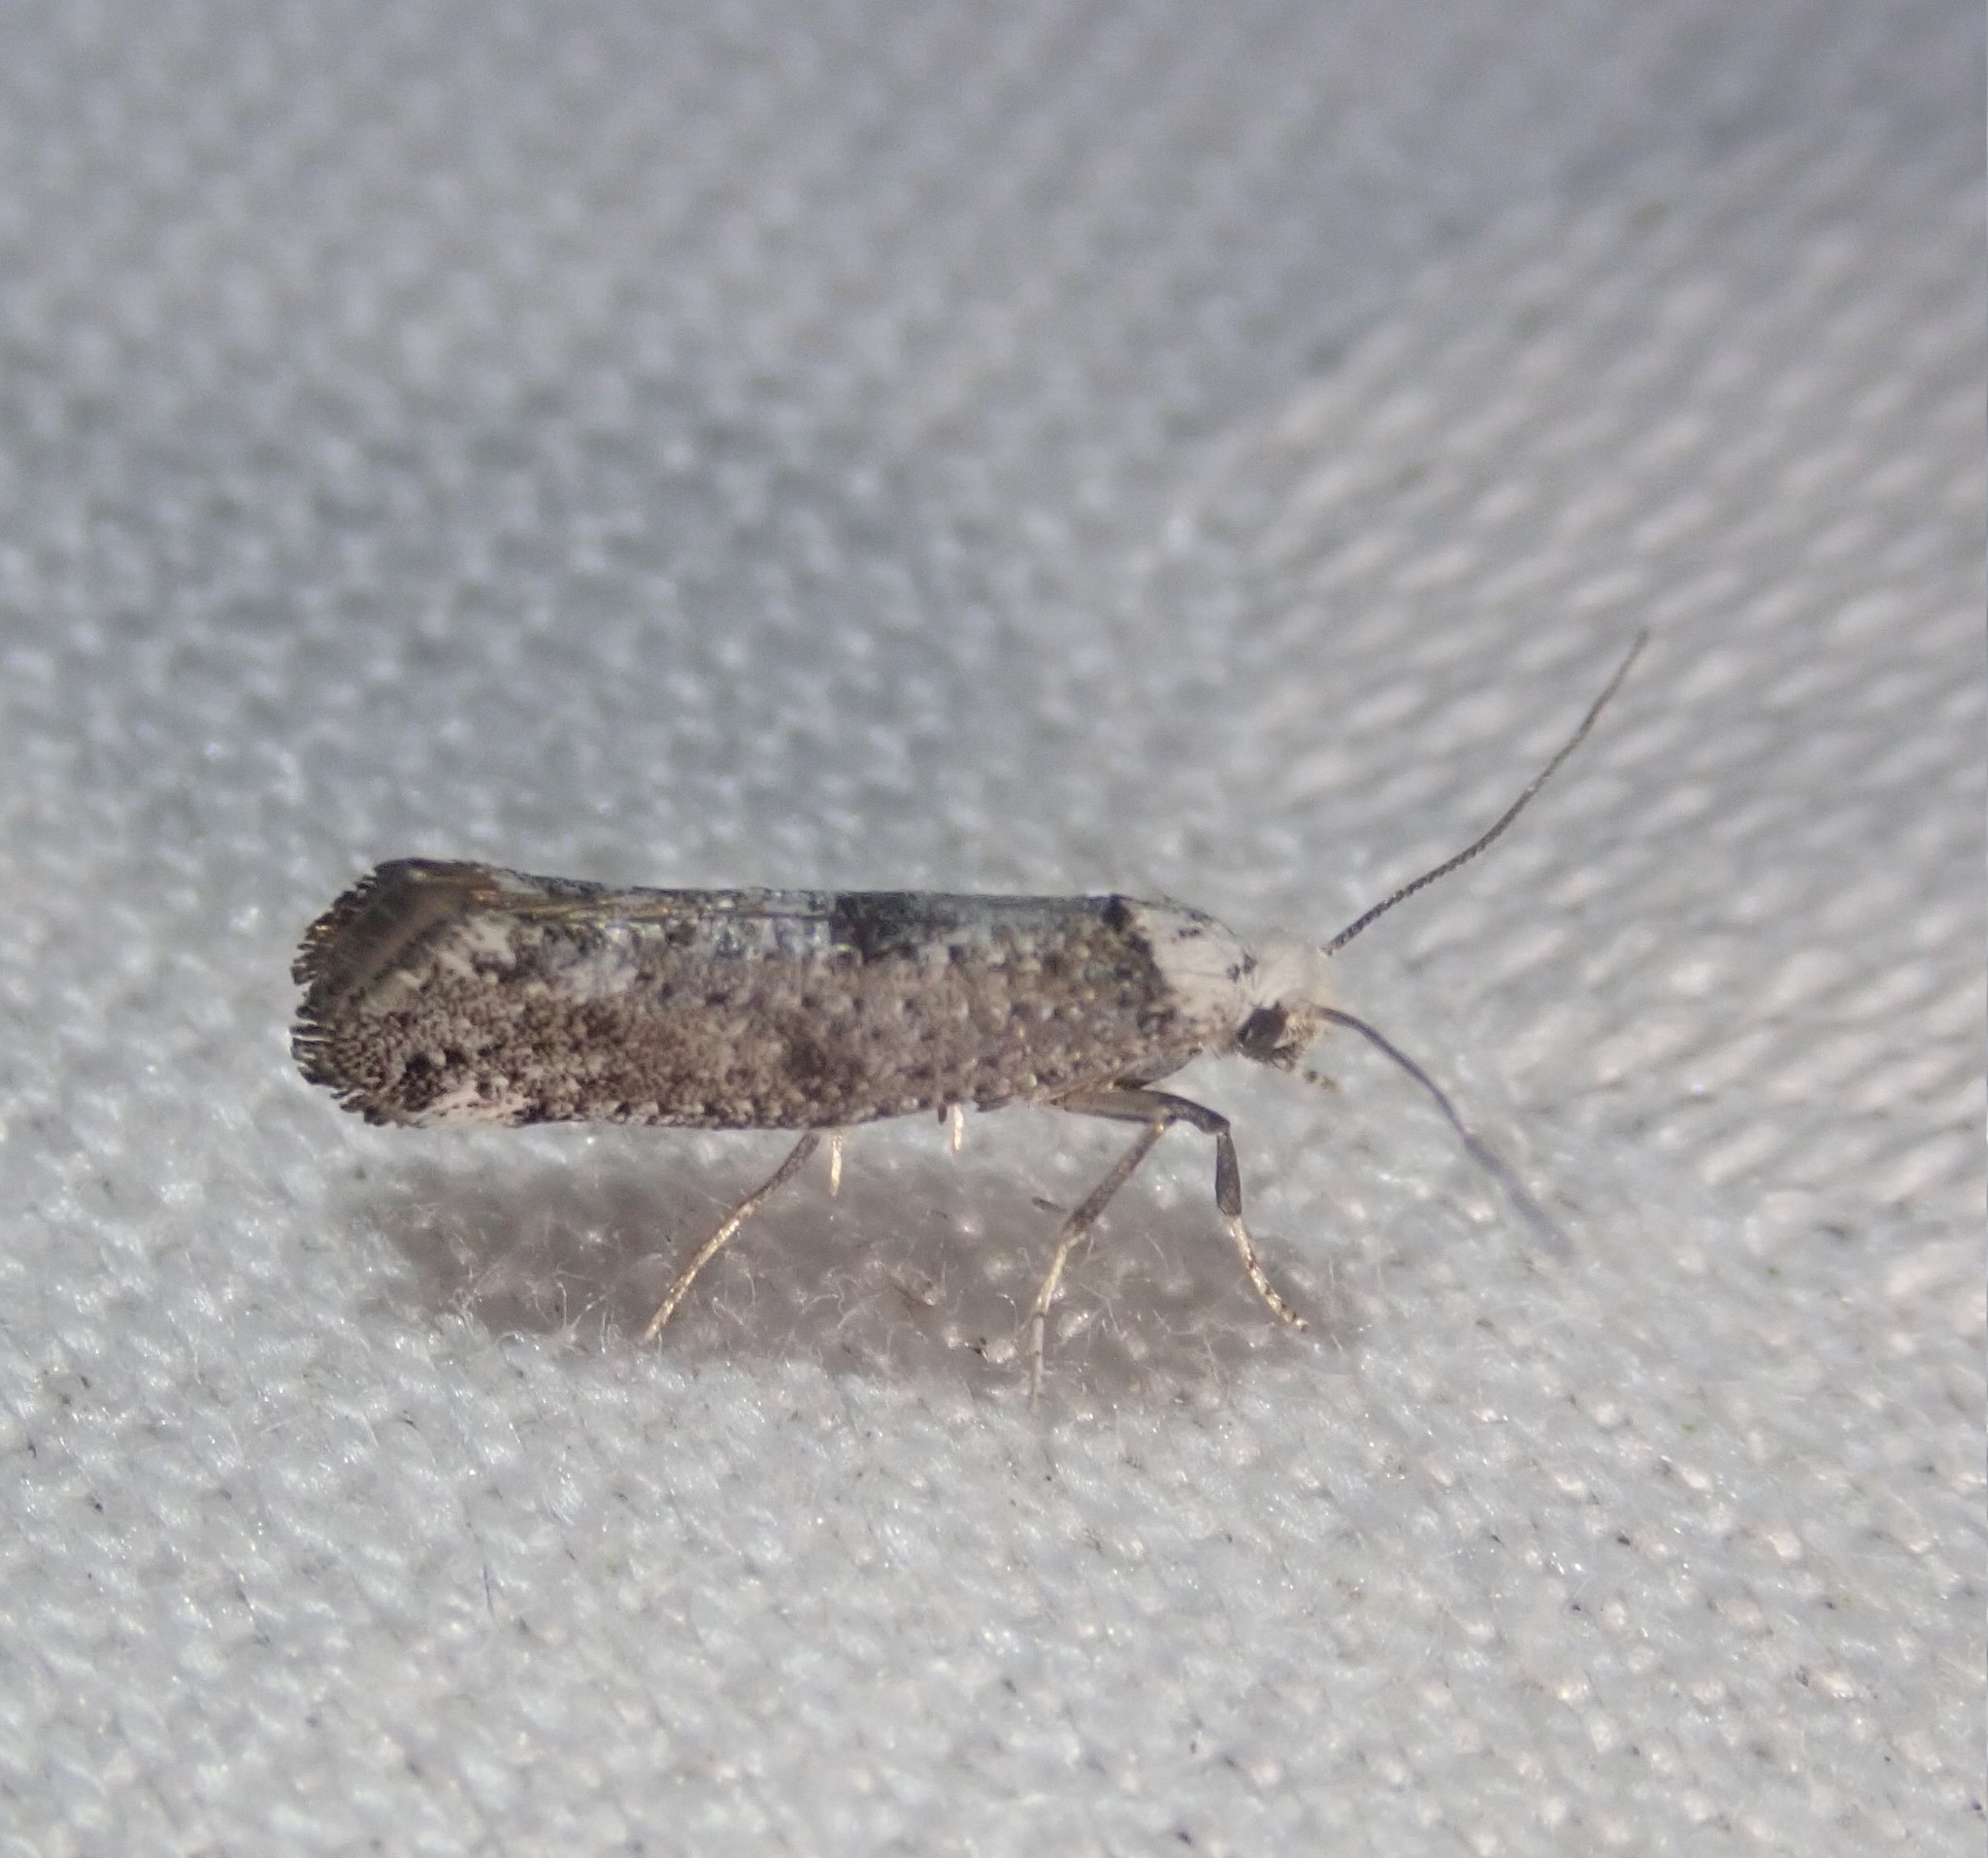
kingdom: Animalia
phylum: Arthropoda
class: Insecta
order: Lepidoptera
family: Yponomeutidae
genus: Paraswammerdamia
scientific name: Paraswammerdamia lutarea
